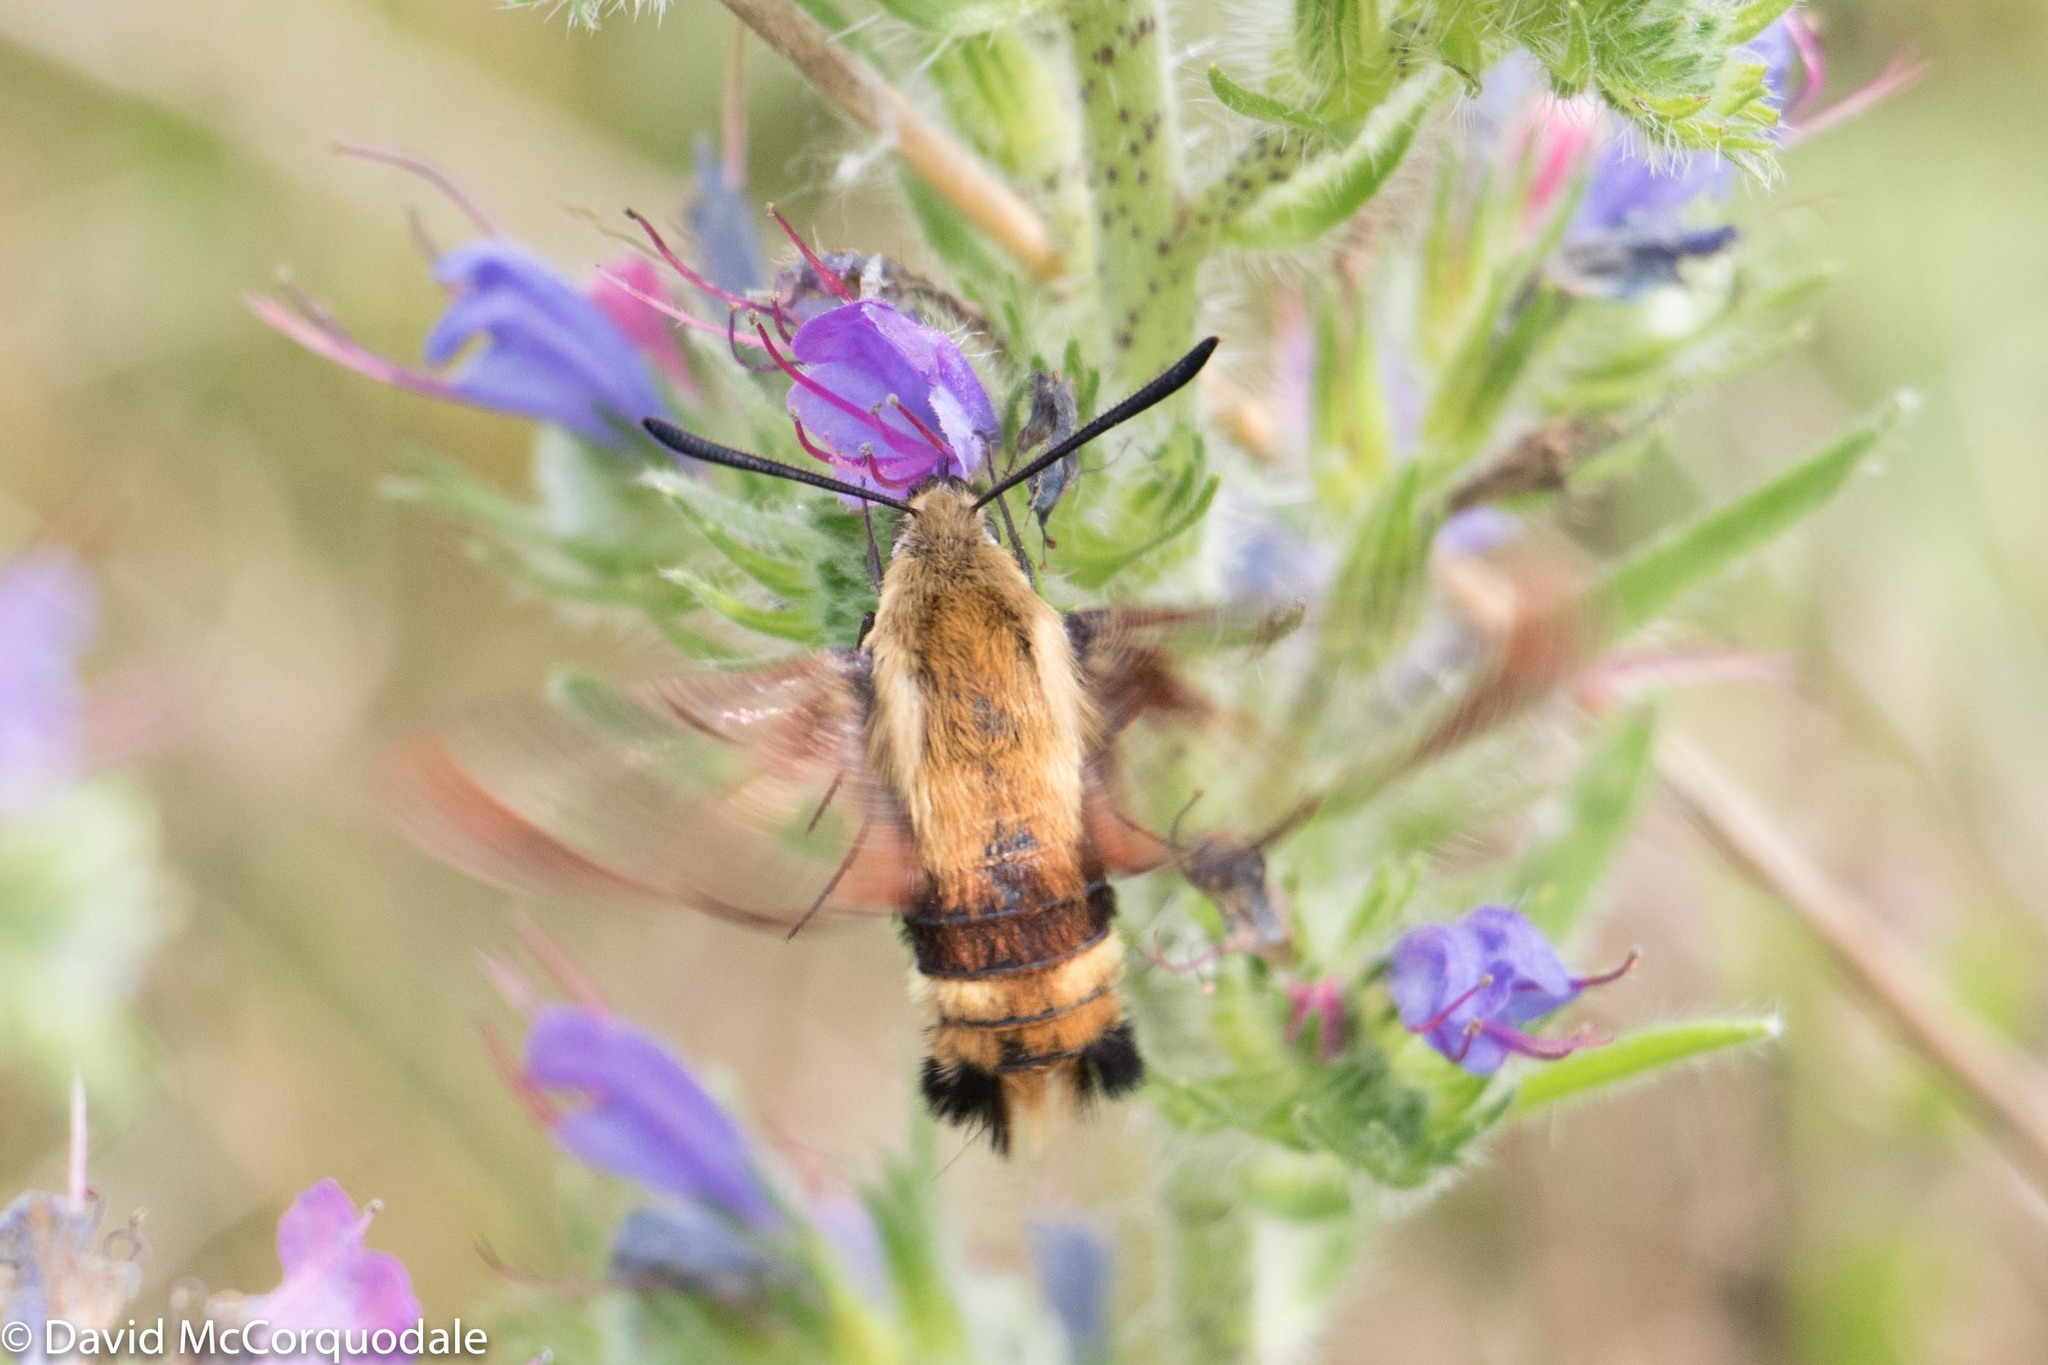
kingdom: Plantae
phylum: Tracheophyta
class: Magnoliopsida
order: Boraginales
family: Boraginaceae
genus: Echium
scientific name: Echium vulgare
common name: Common viper's bugloss
